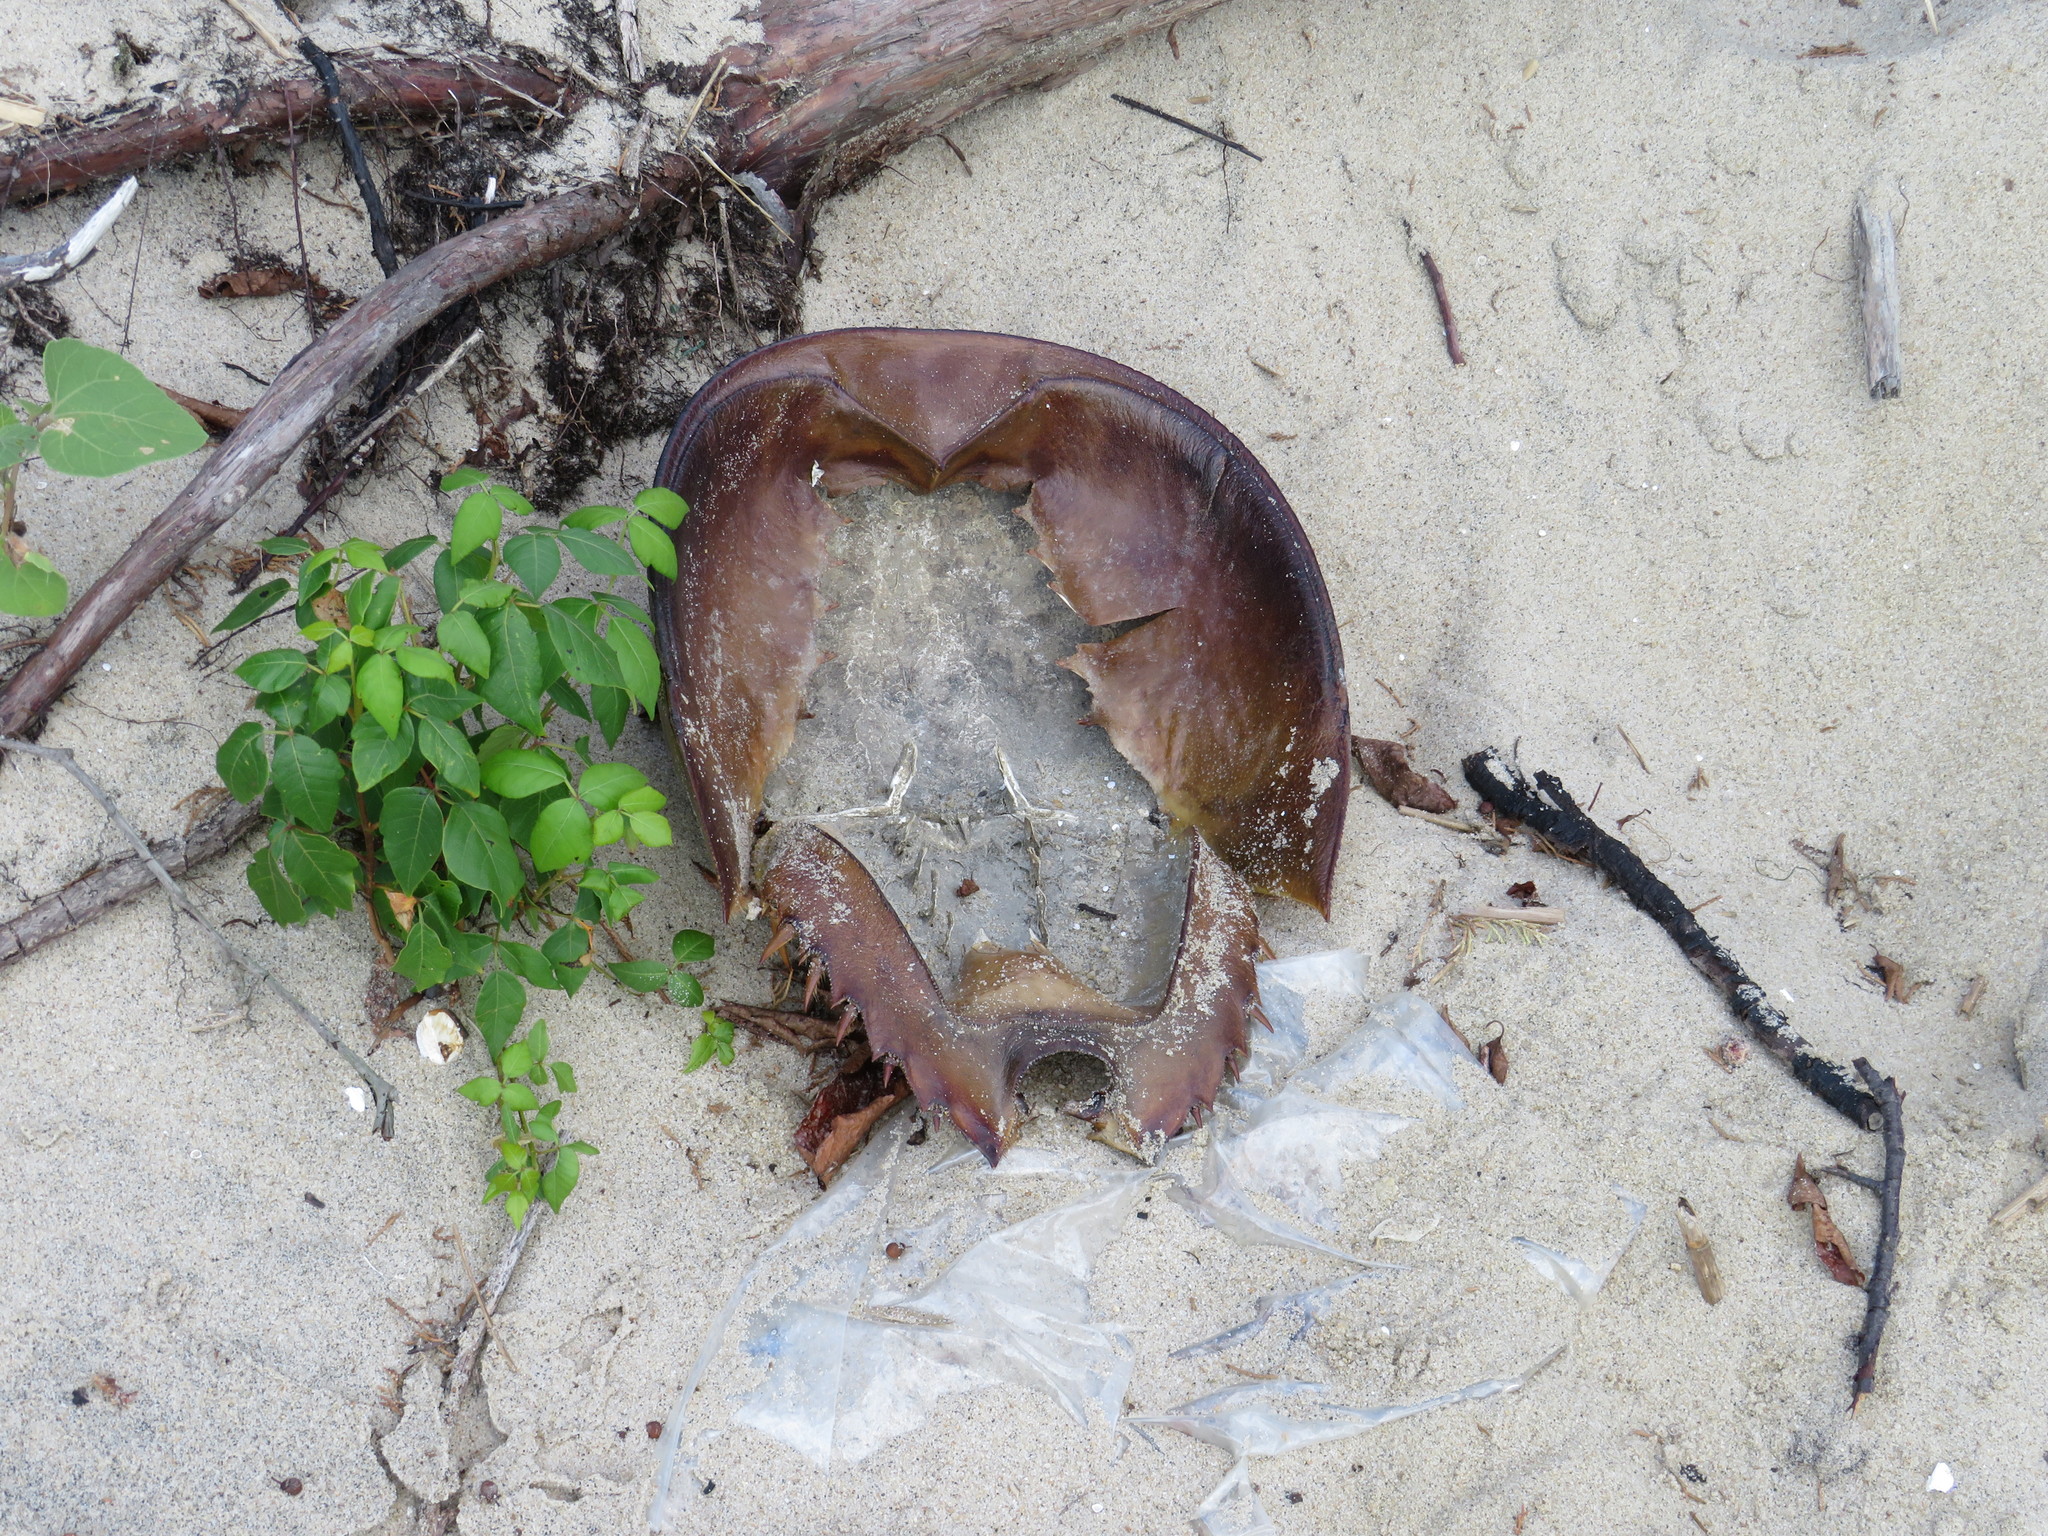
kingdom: Animalia
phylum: Arthropoda
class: Merostomata
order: Xiphosurida
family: Limulidae
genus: Limulus
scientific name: Limulus polyphemus
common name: Horseshoe crab
